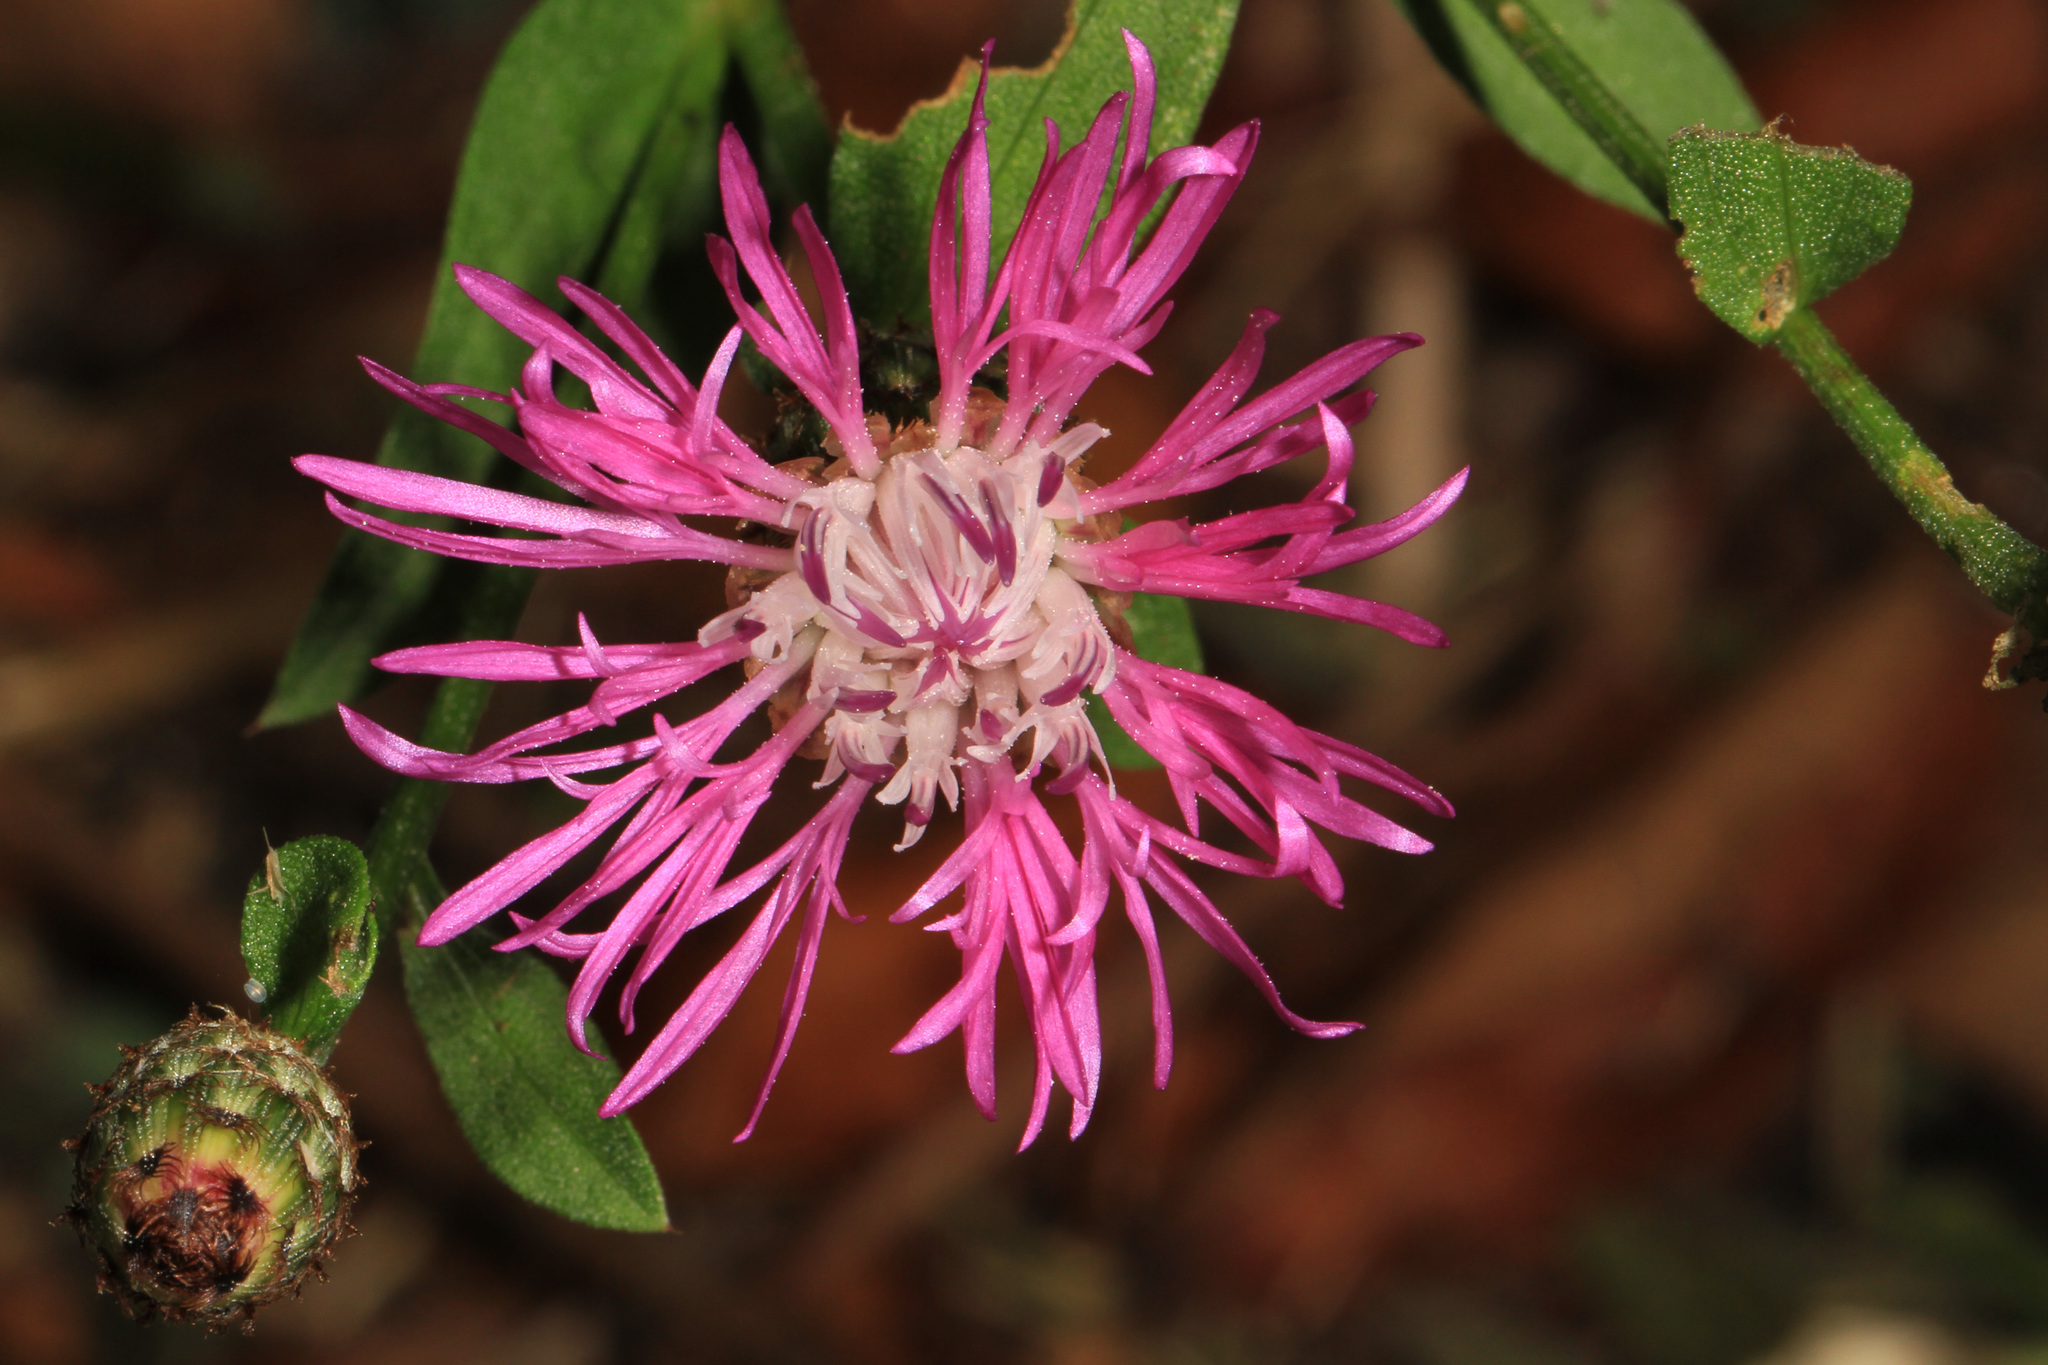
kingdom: Plantae
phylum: Tracheophyta
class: Magnoliopsida
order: Asterales
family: Asteraceae
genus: Centaurea
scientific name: Centaurea stoebe
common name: Spotted knapweed
